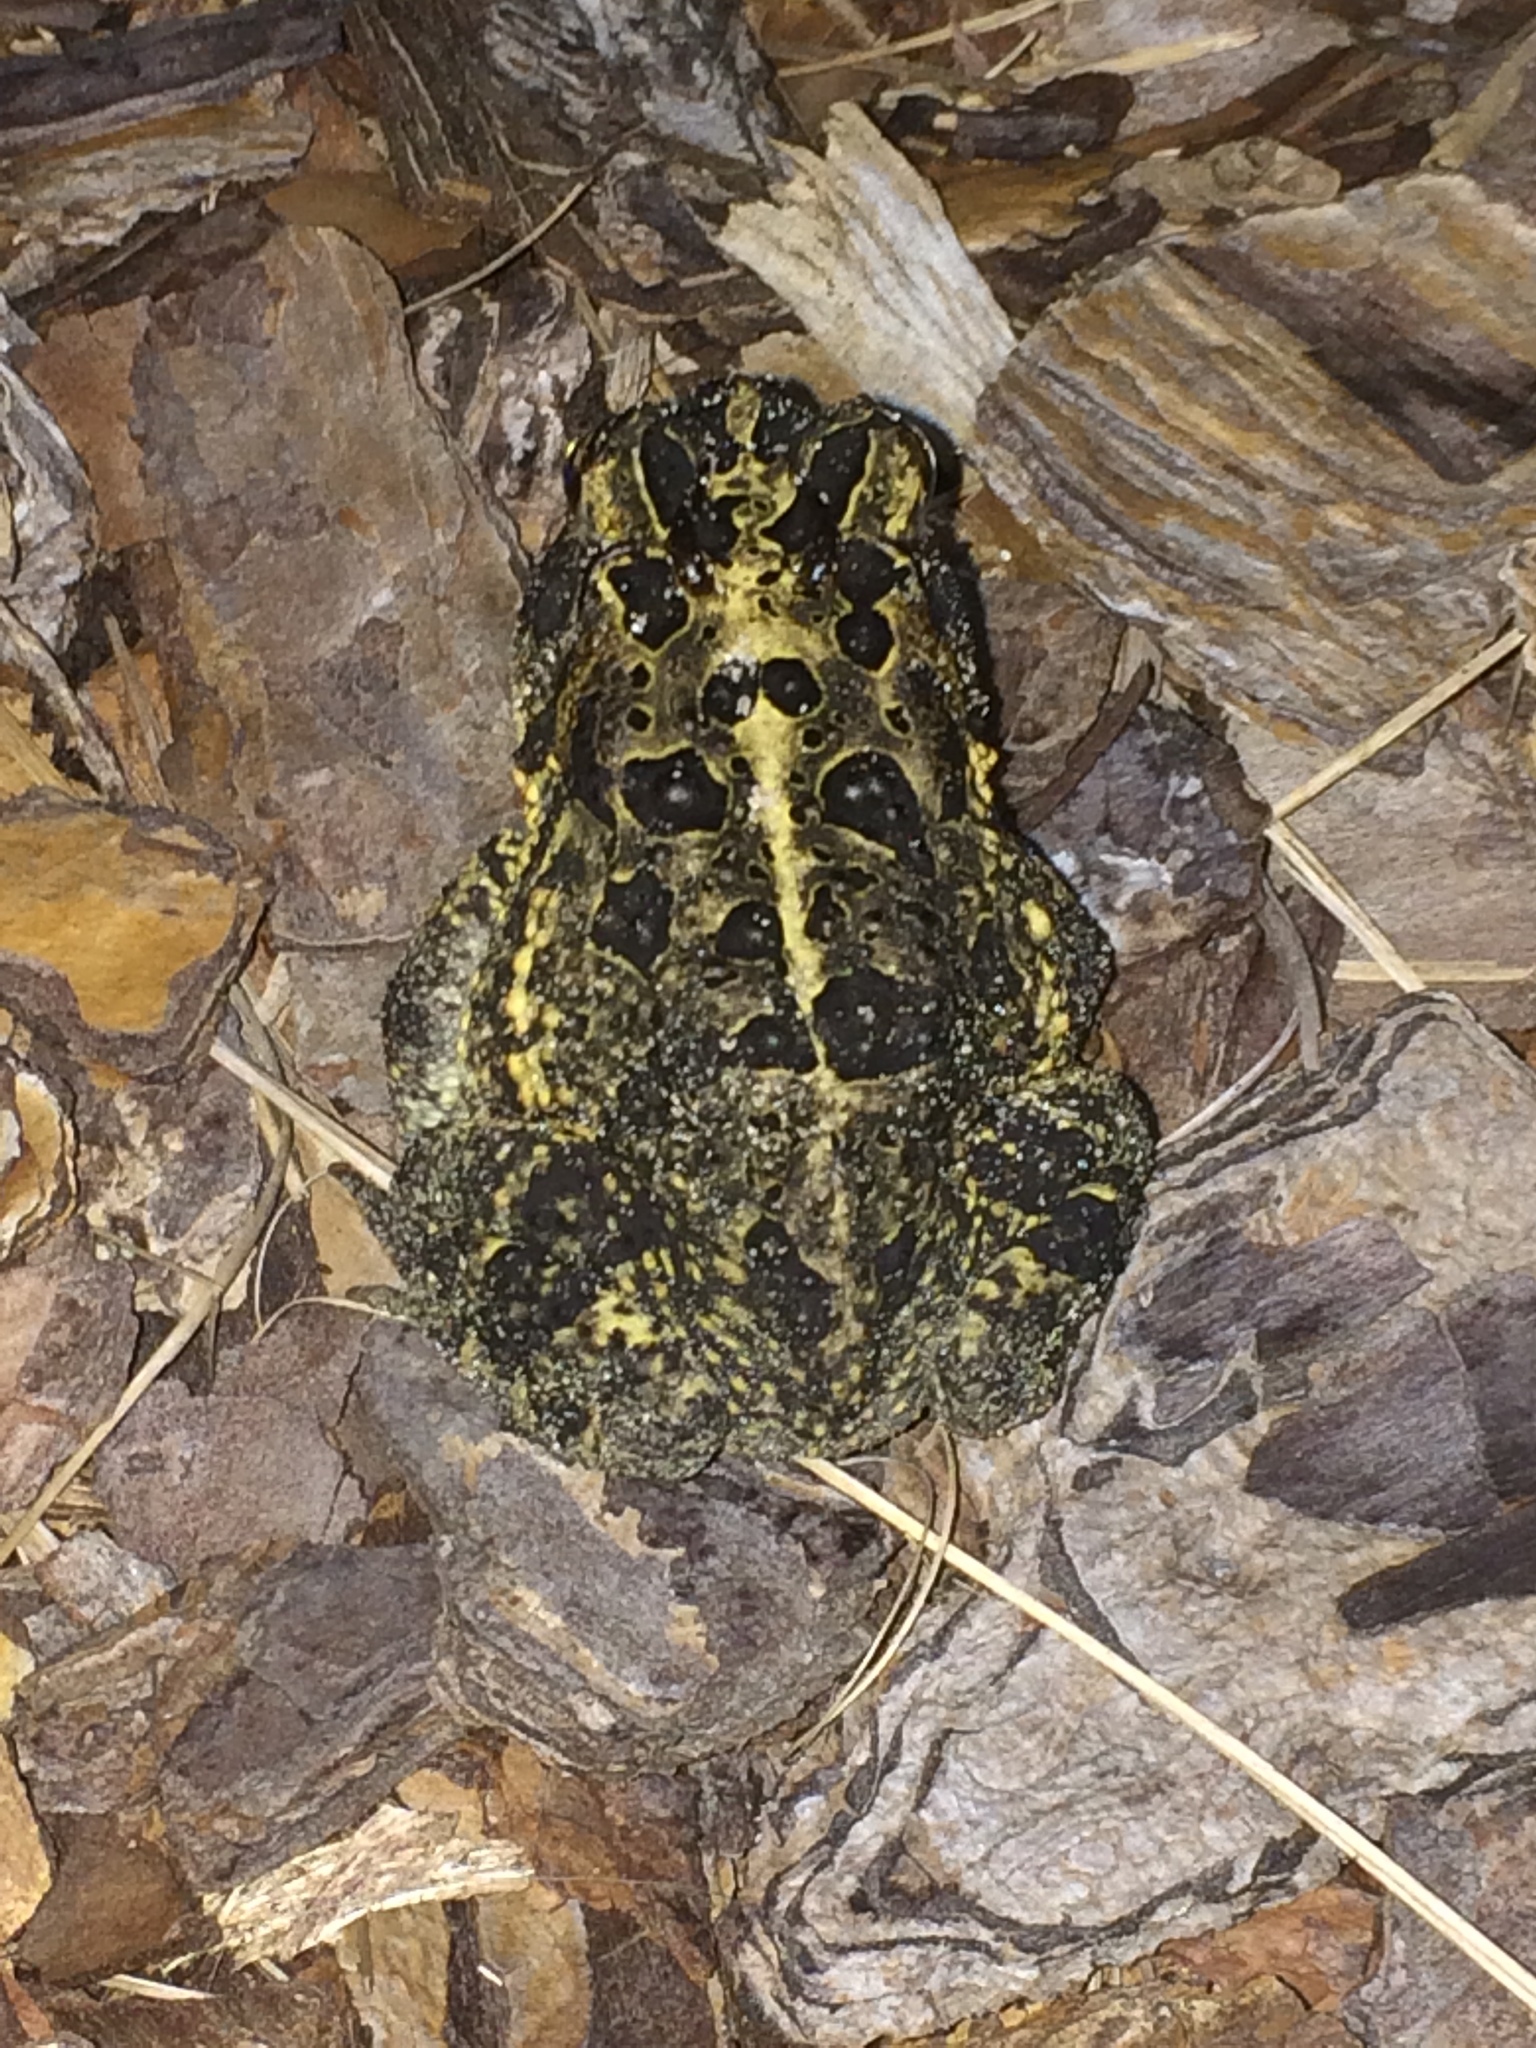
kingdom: Animalia
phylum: Chordata
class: Amphibia
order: Anura
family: Bufonidae
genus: Anaxyrus
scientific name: Anaxyrus terrestris
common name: Southern toad
